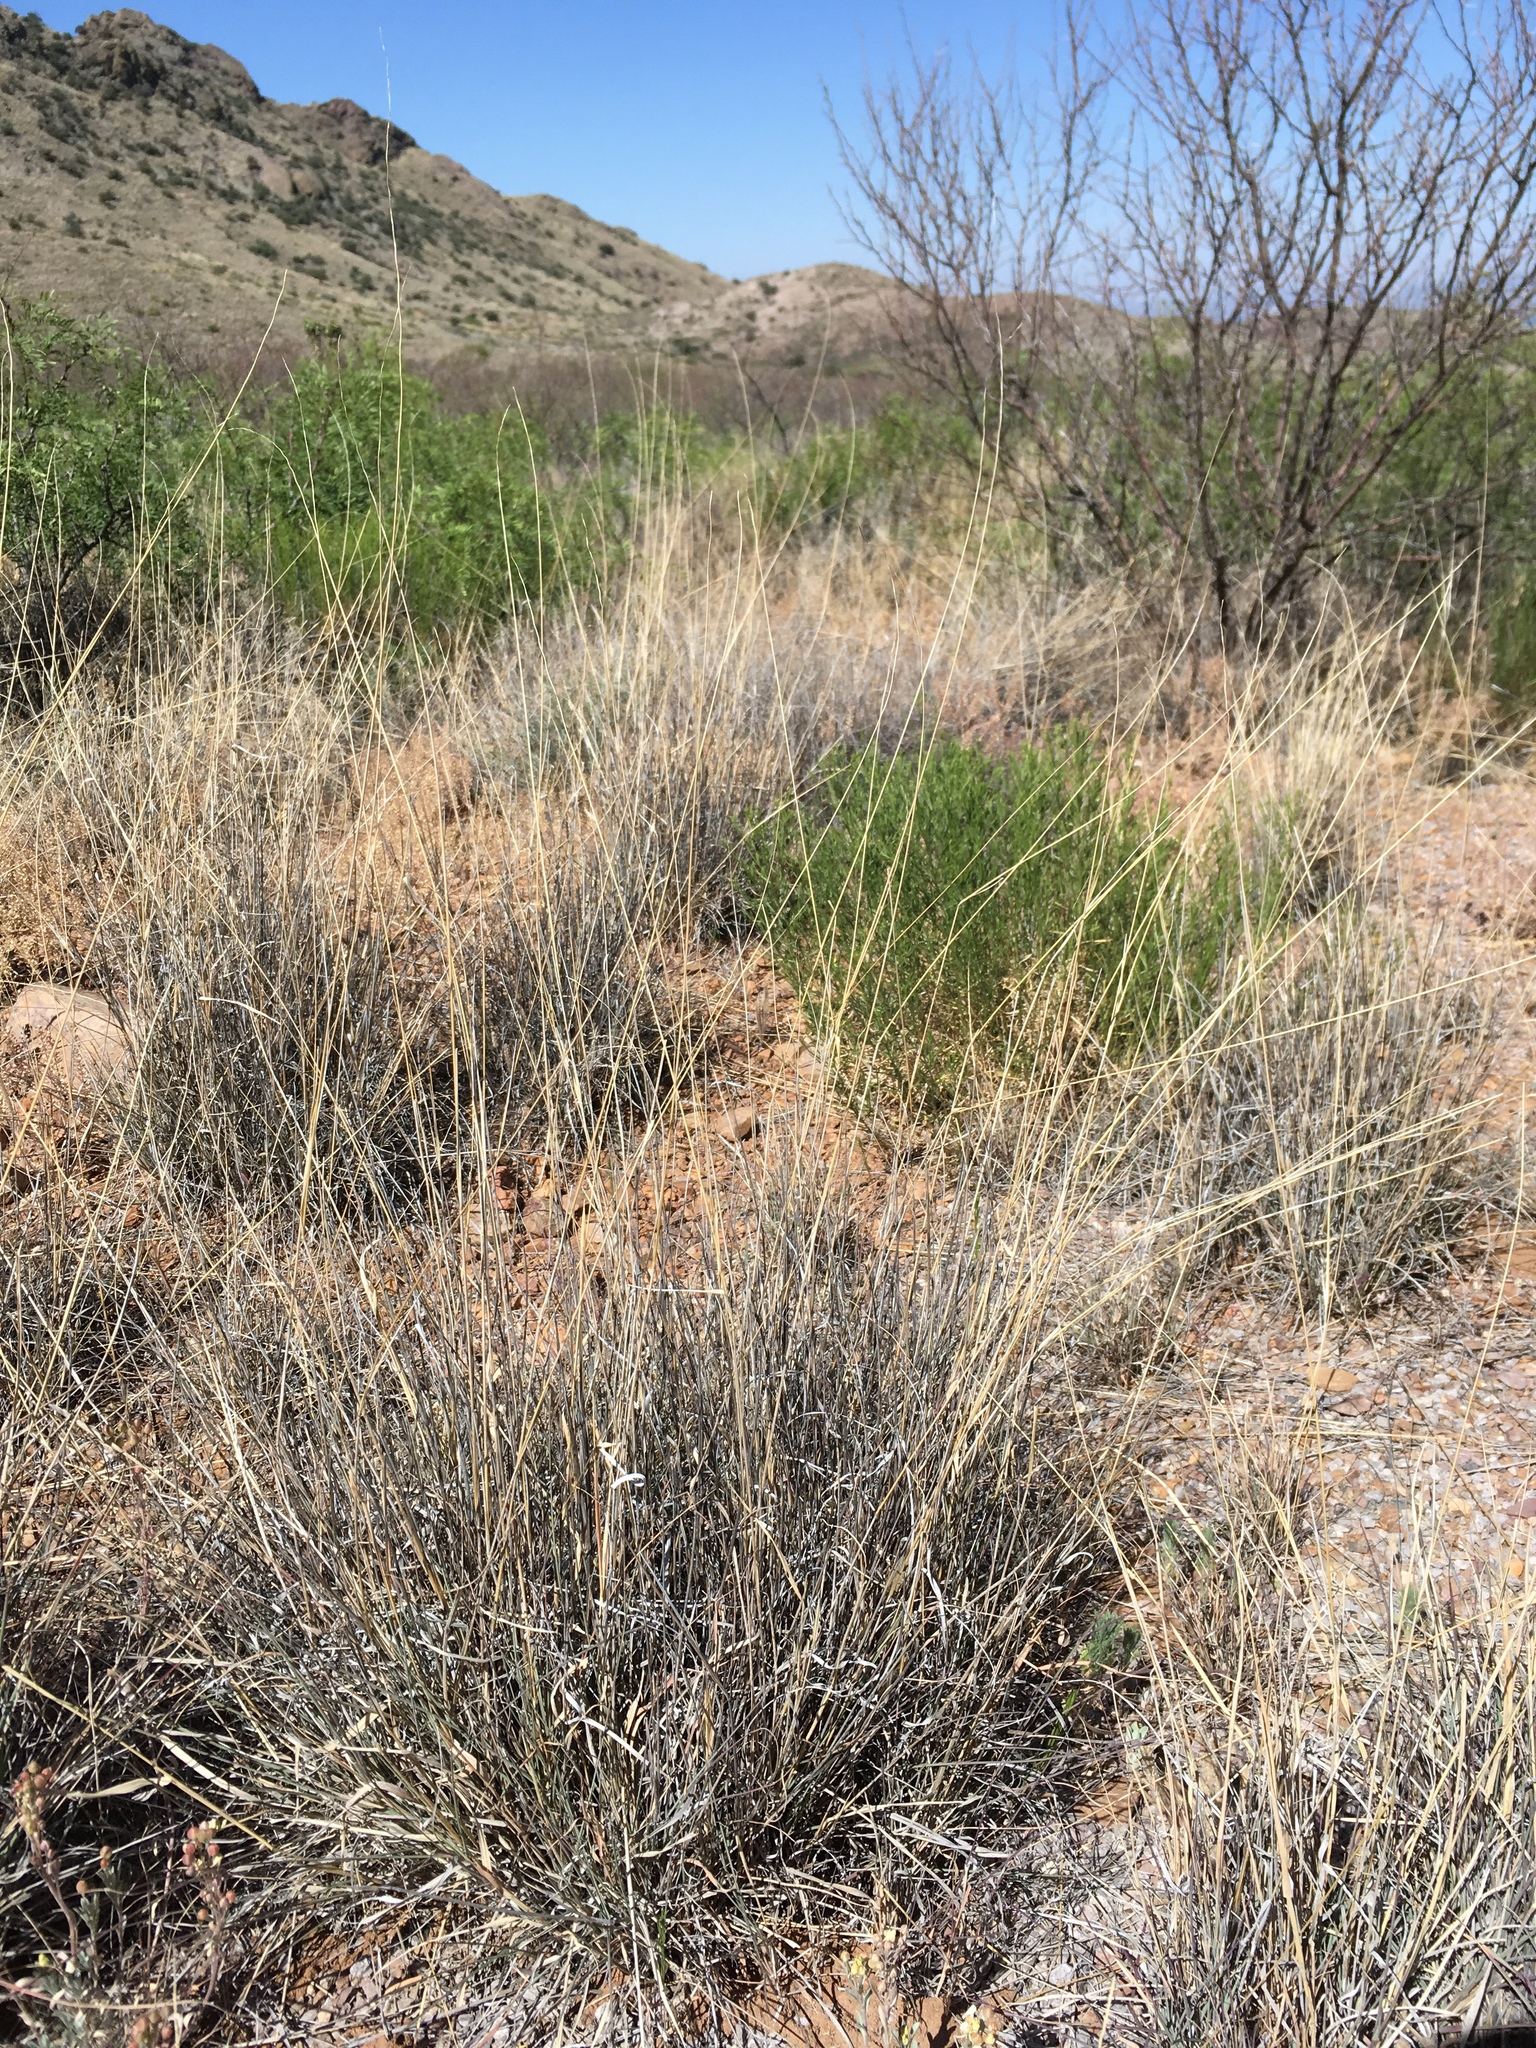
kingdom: Plantae
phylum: Tracheophyta
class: Liliopsida
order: Poales
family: Poaceae
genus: Bouteloua
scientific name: Bouteloua curtipendula
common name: Side-oats grama
